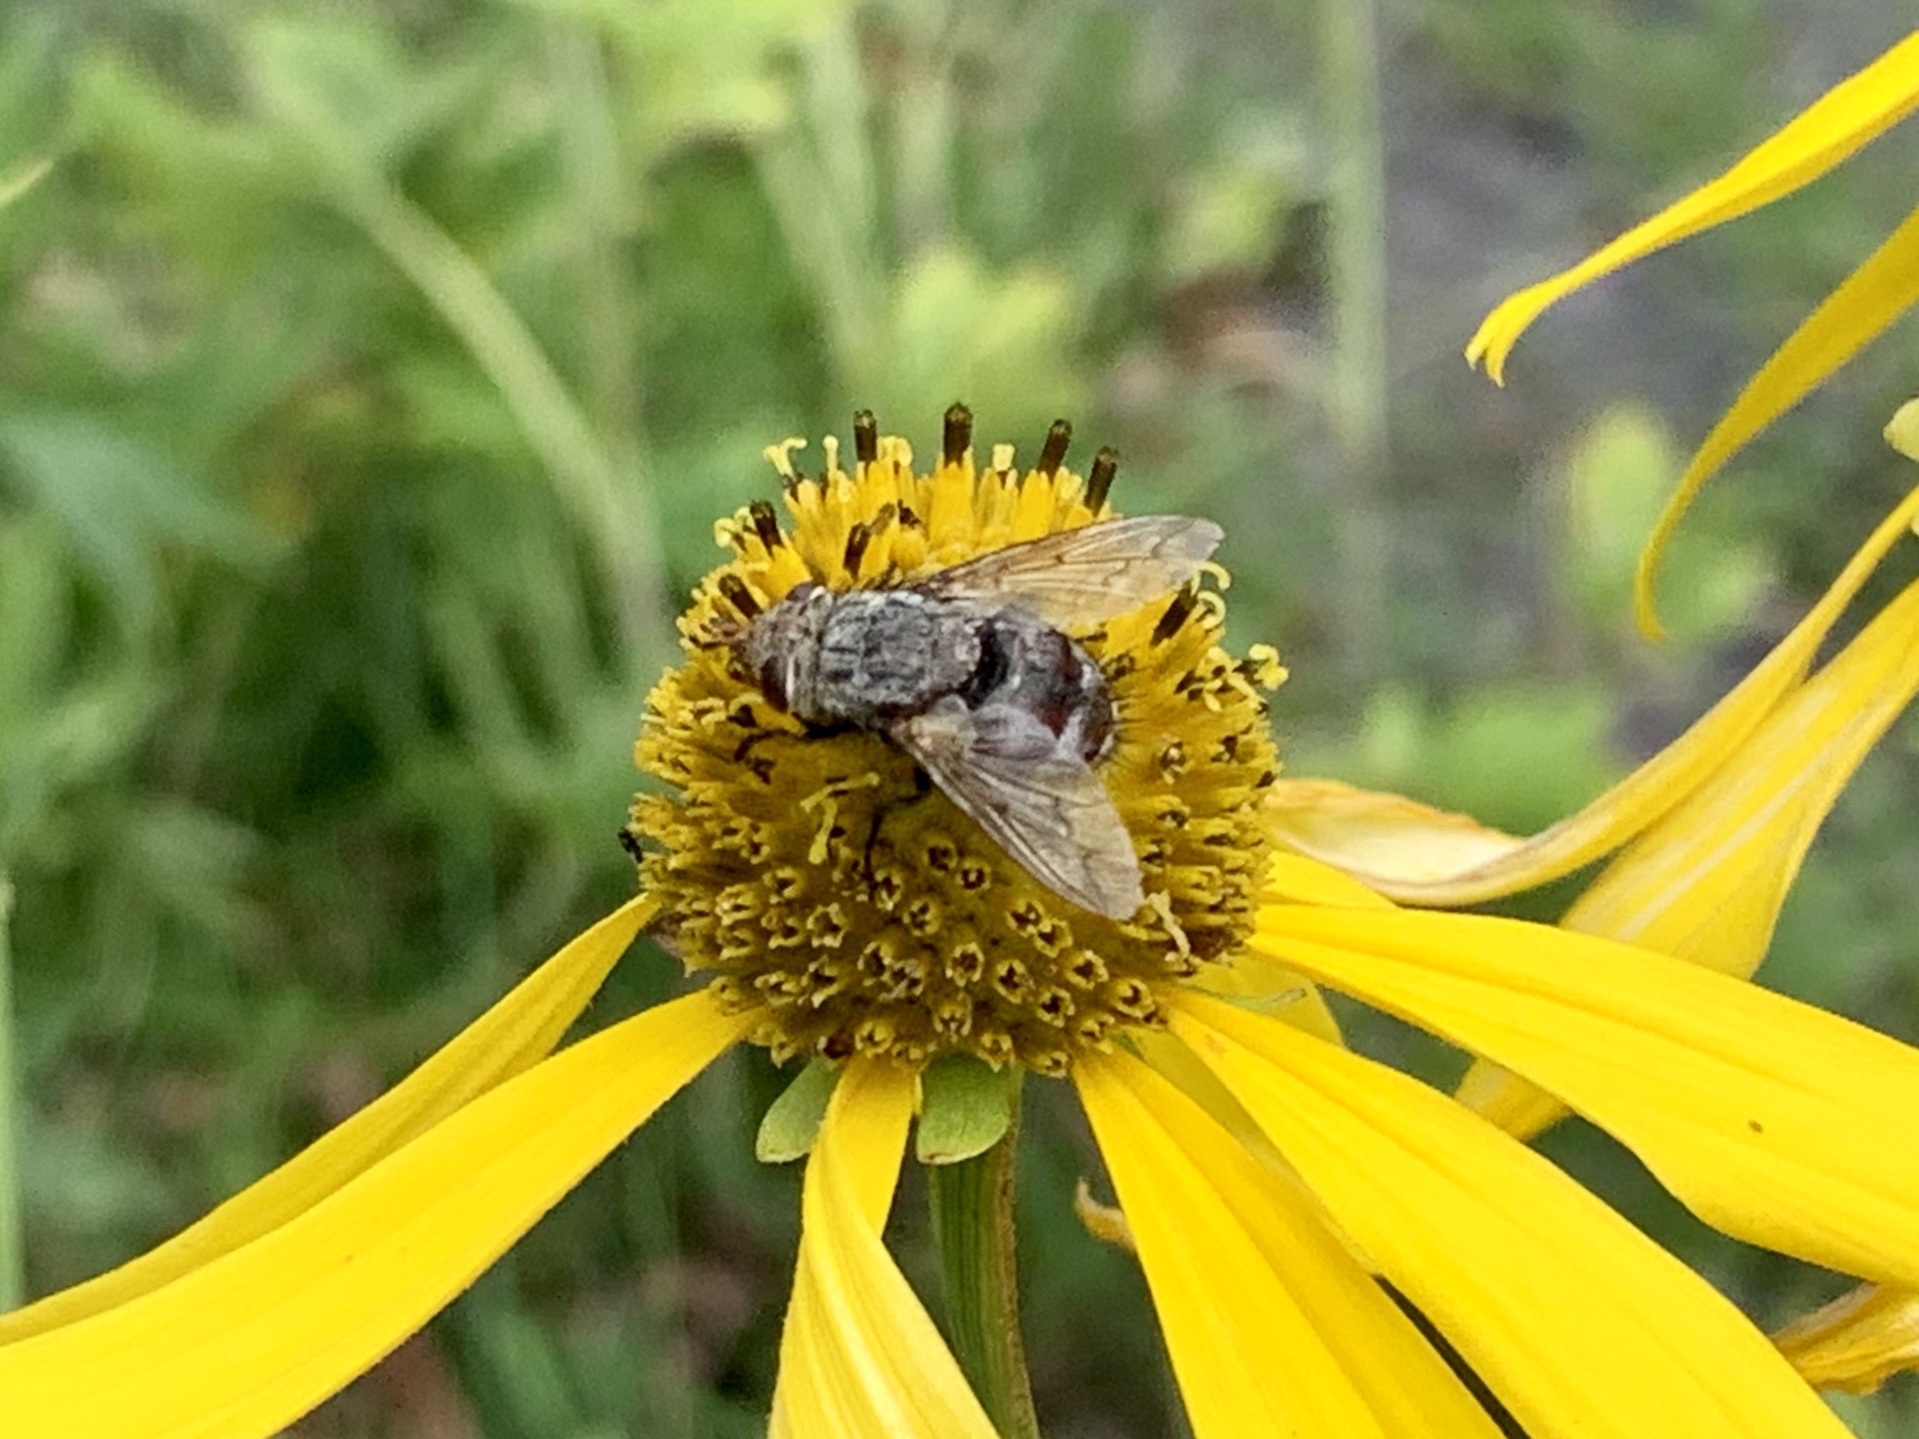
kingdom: Animalia
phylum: Arthropoda
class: Insecta
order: Diptera
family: Tachinidae
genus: Archytas
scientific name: Archytas marmoratus
